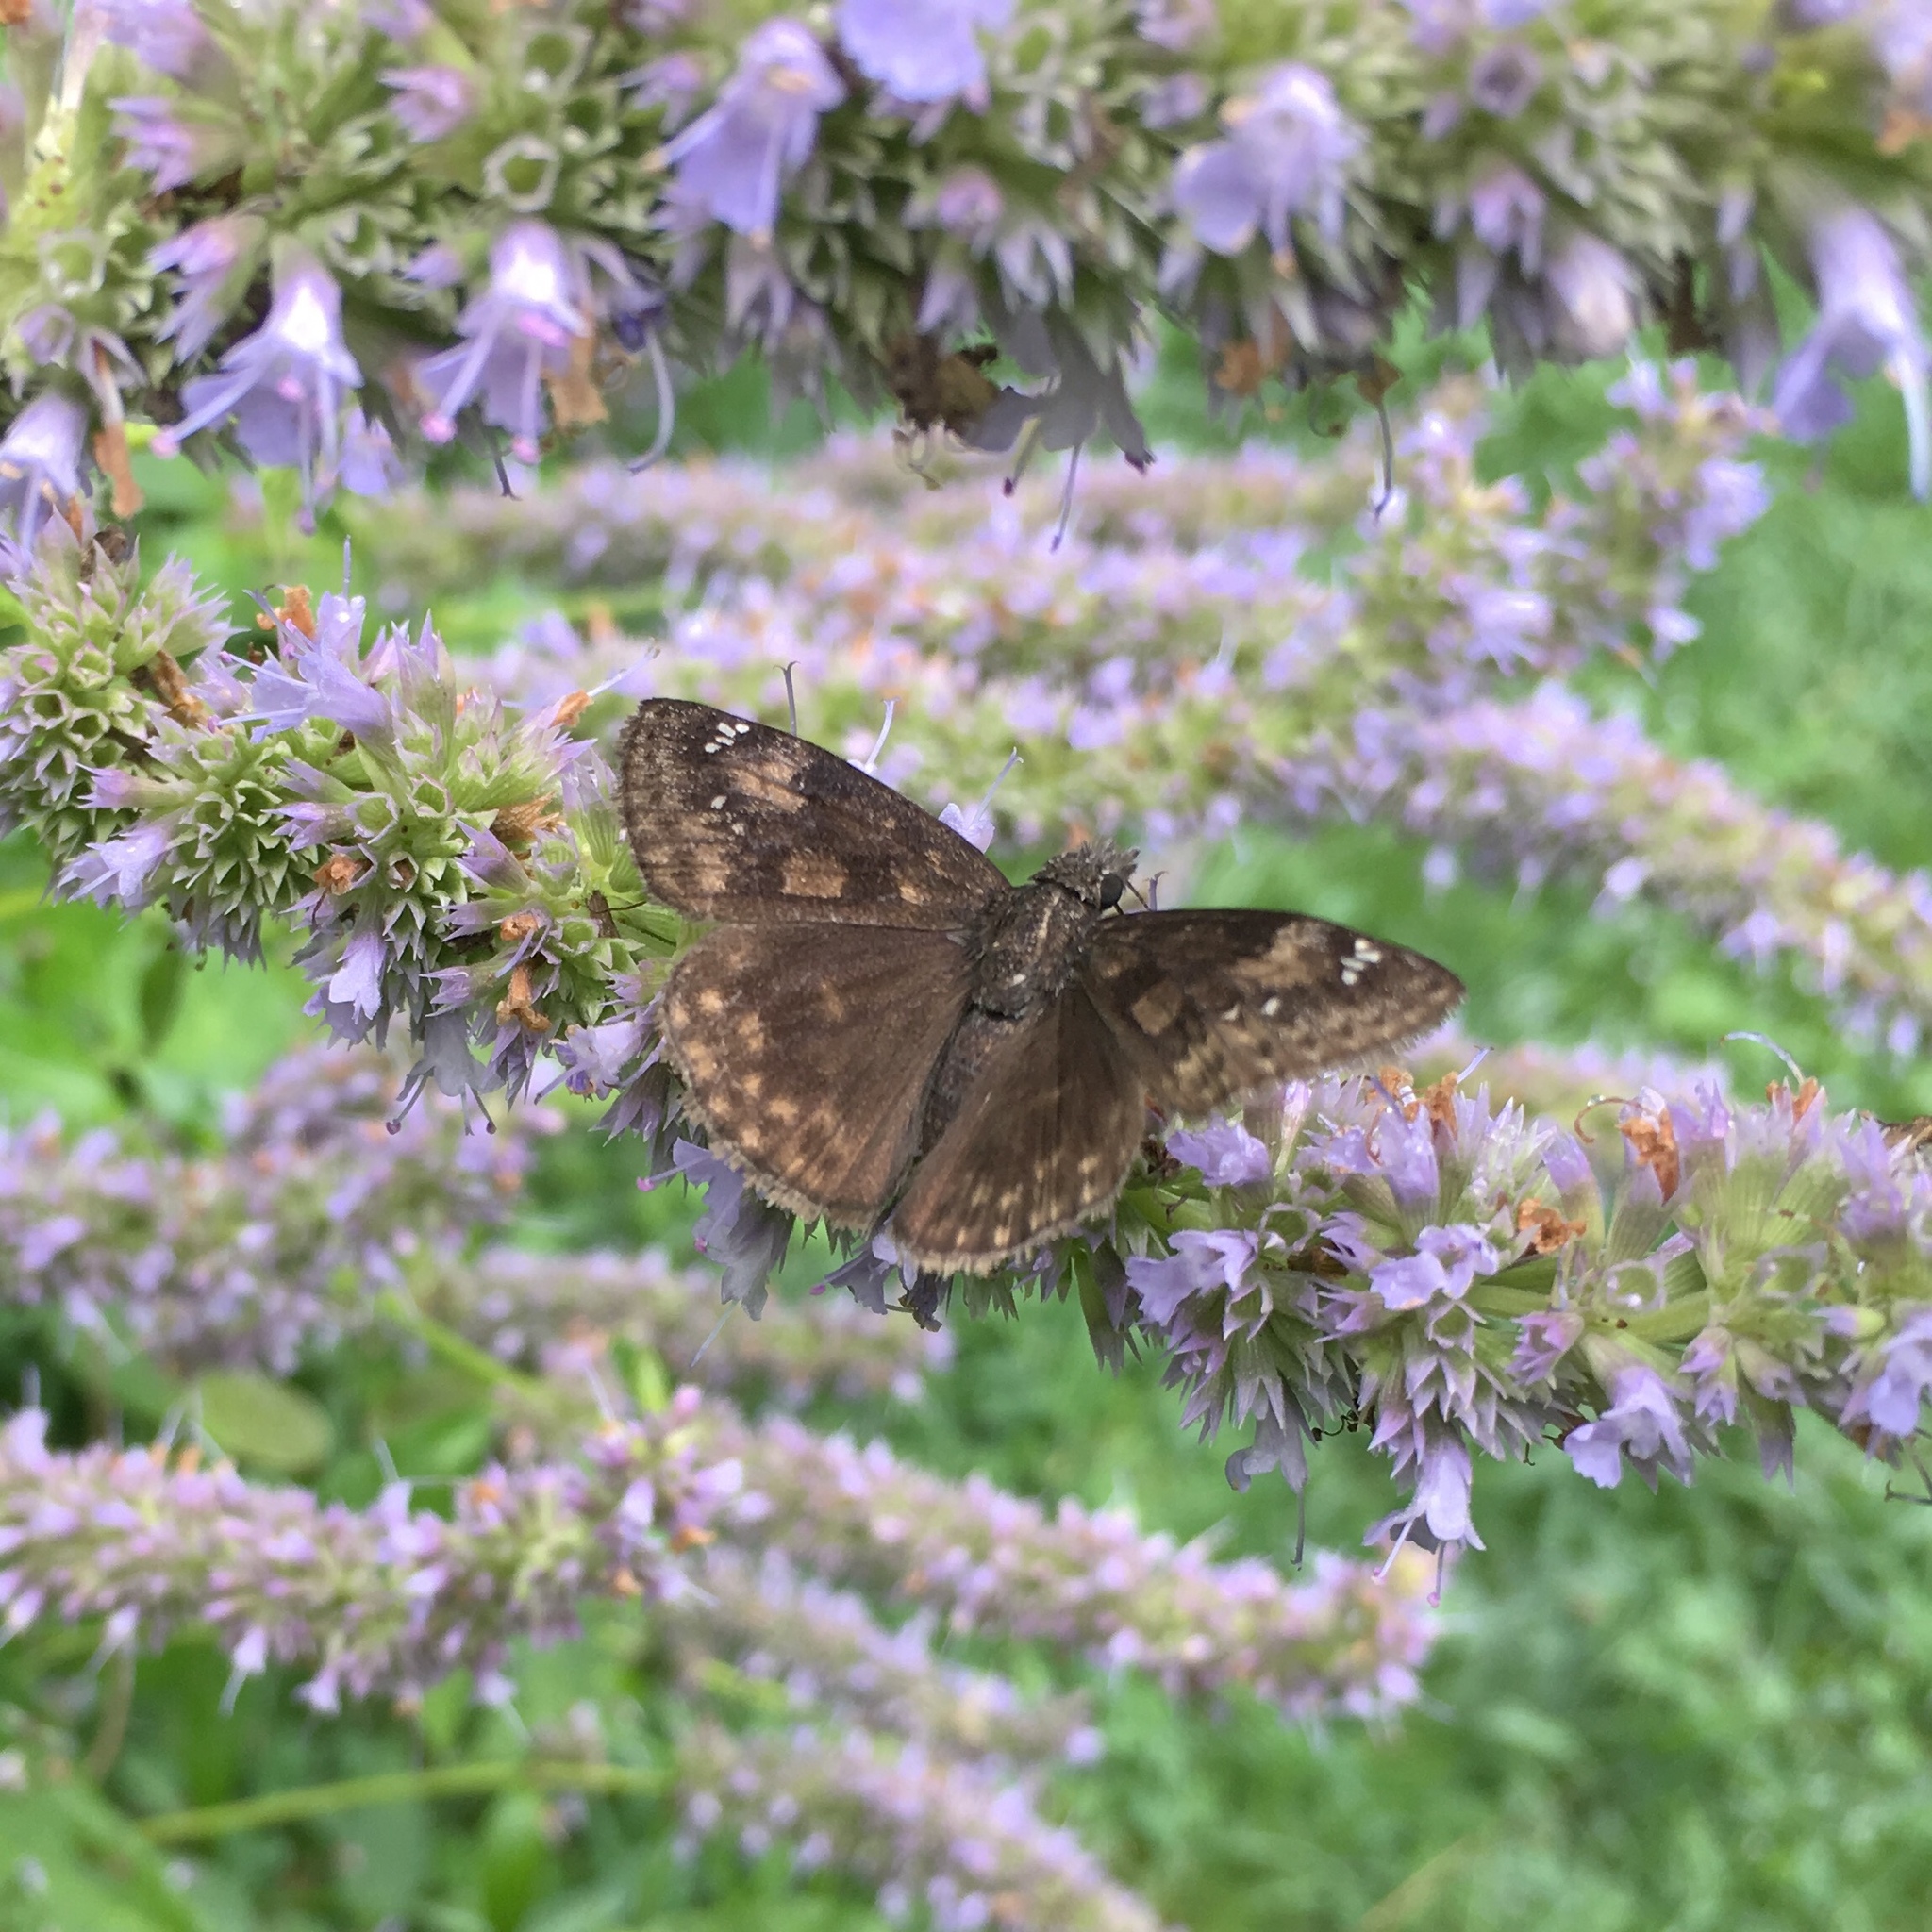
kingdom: Animalia
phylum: Arthropoda
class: Insecta
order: Lepidoptera
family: Hesperiidae
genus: Erynnis
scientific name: Erynnis baptisiae
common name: Wild indigo duskywing
